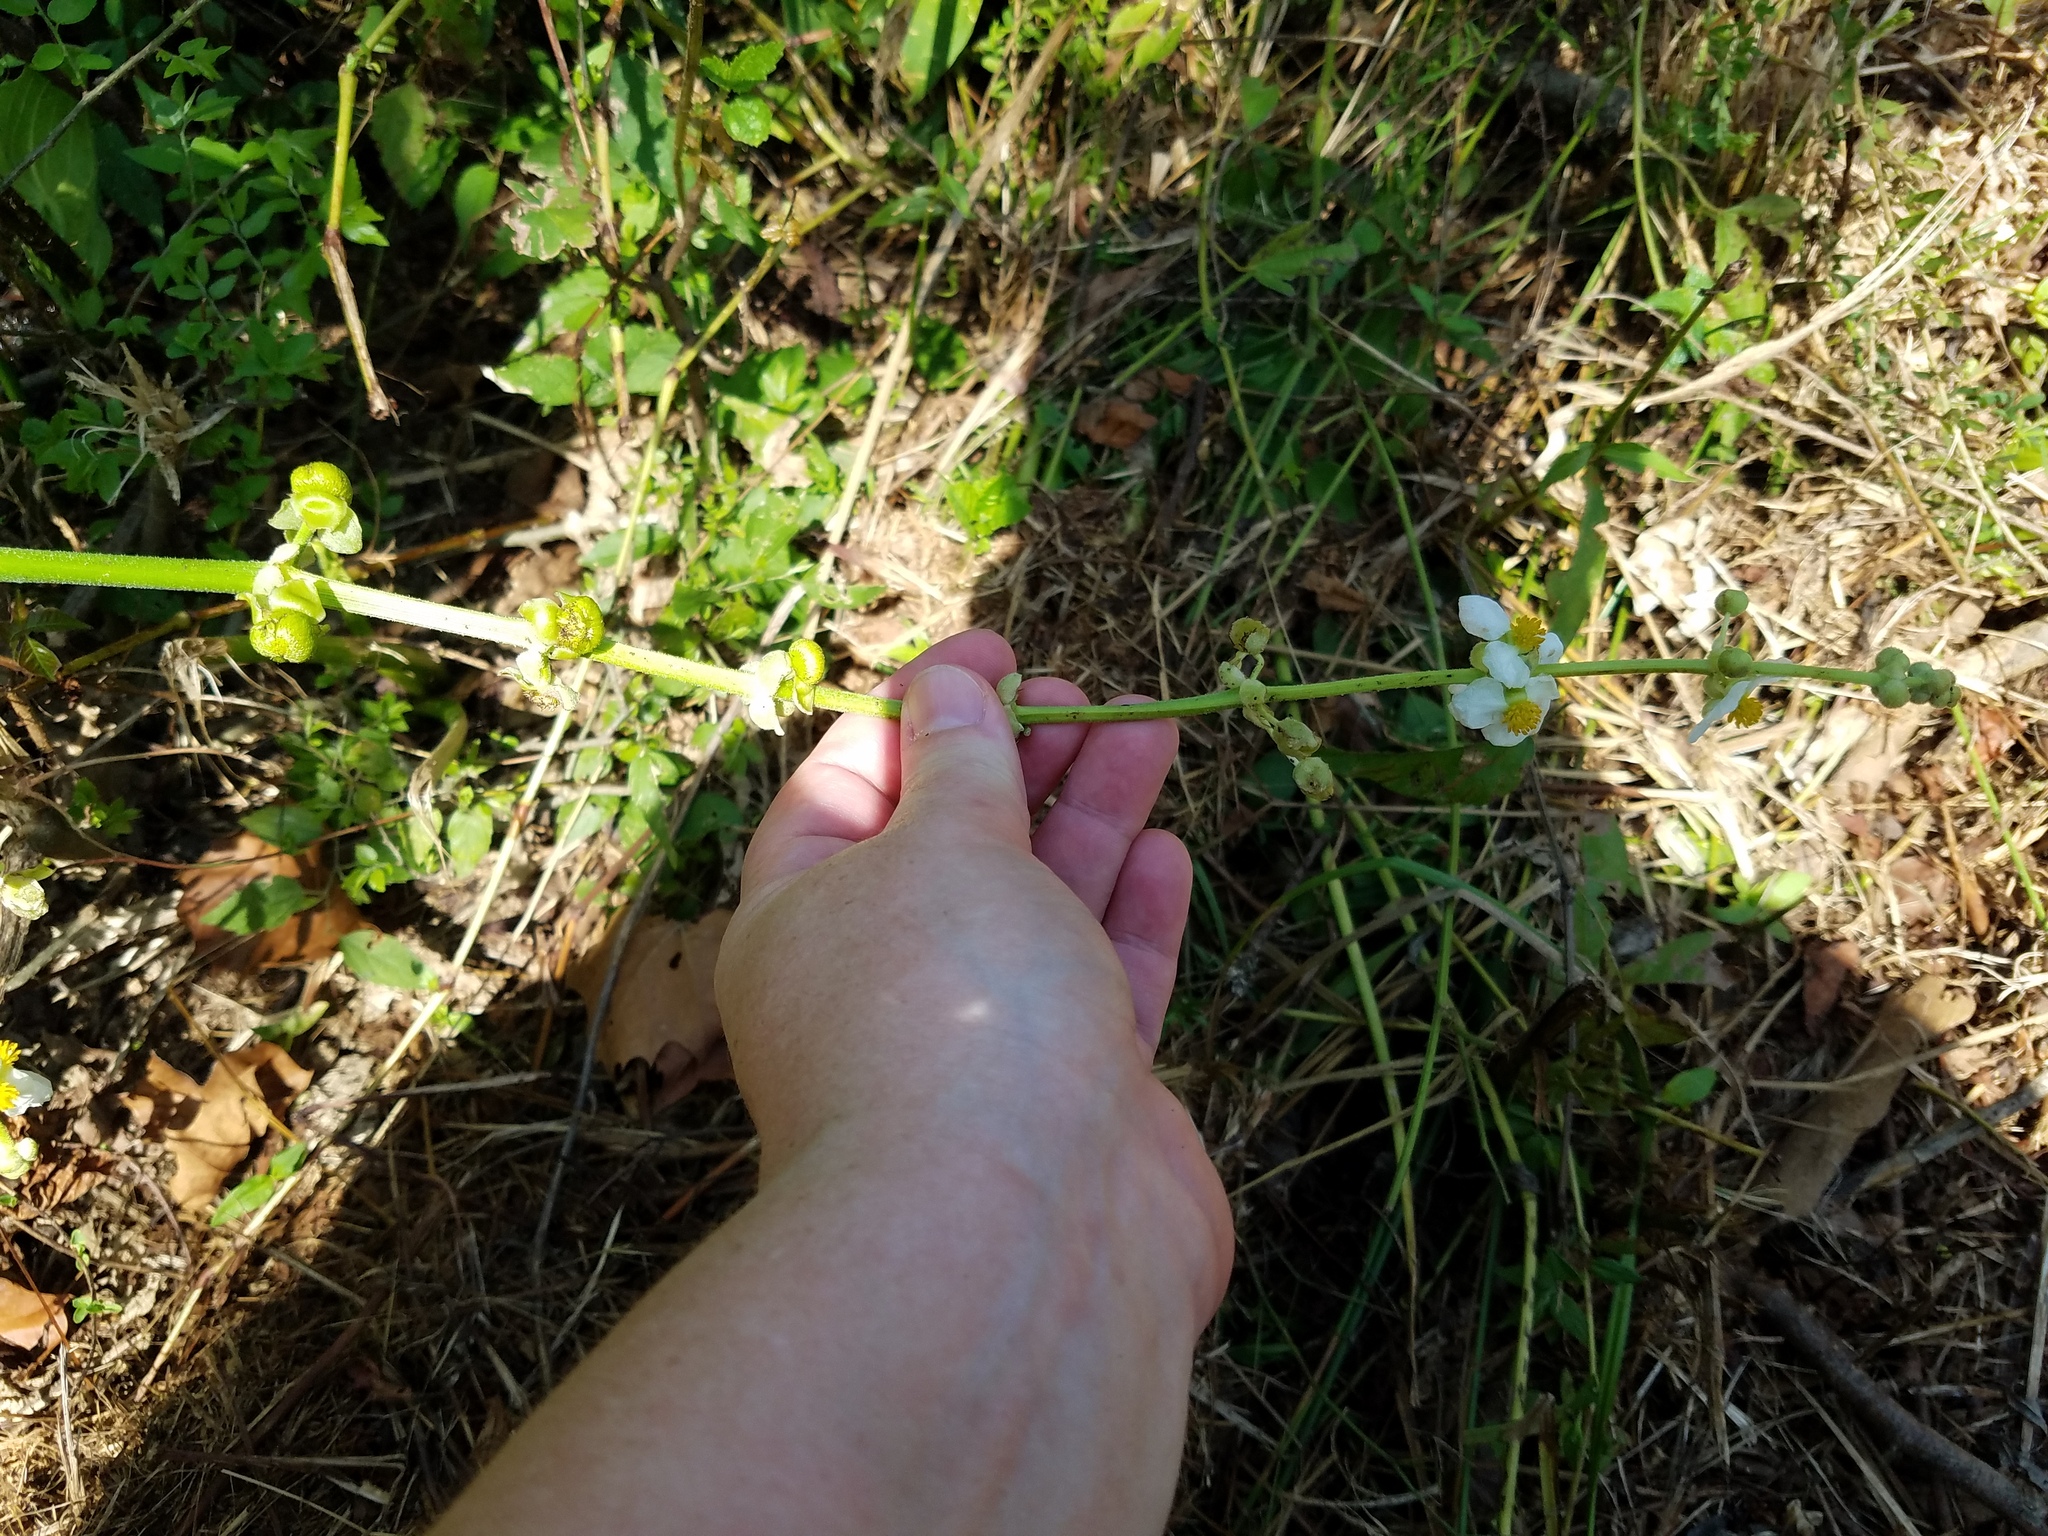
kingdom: Plantae
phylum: Tracheophyta
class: Liliopsida
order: Alismatales
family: Alismataceae
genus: Sagittaria
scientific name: Sagittaria latifolia
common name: Duck-potato
